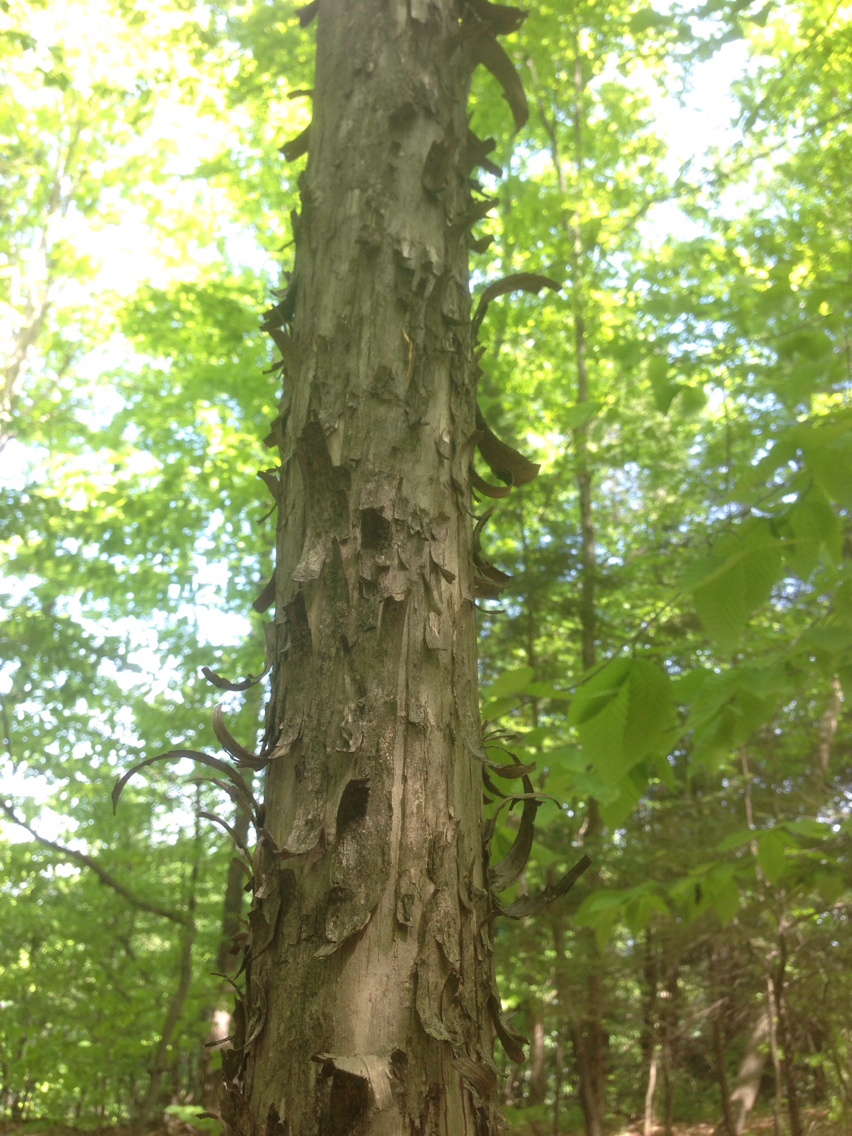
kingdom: Plantae
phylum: Tracheophyta
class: Magnoliopsida
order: Fagales
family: Betulaceae
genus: Ostrya
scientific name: Ostrya virginiana
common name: Ironwood
